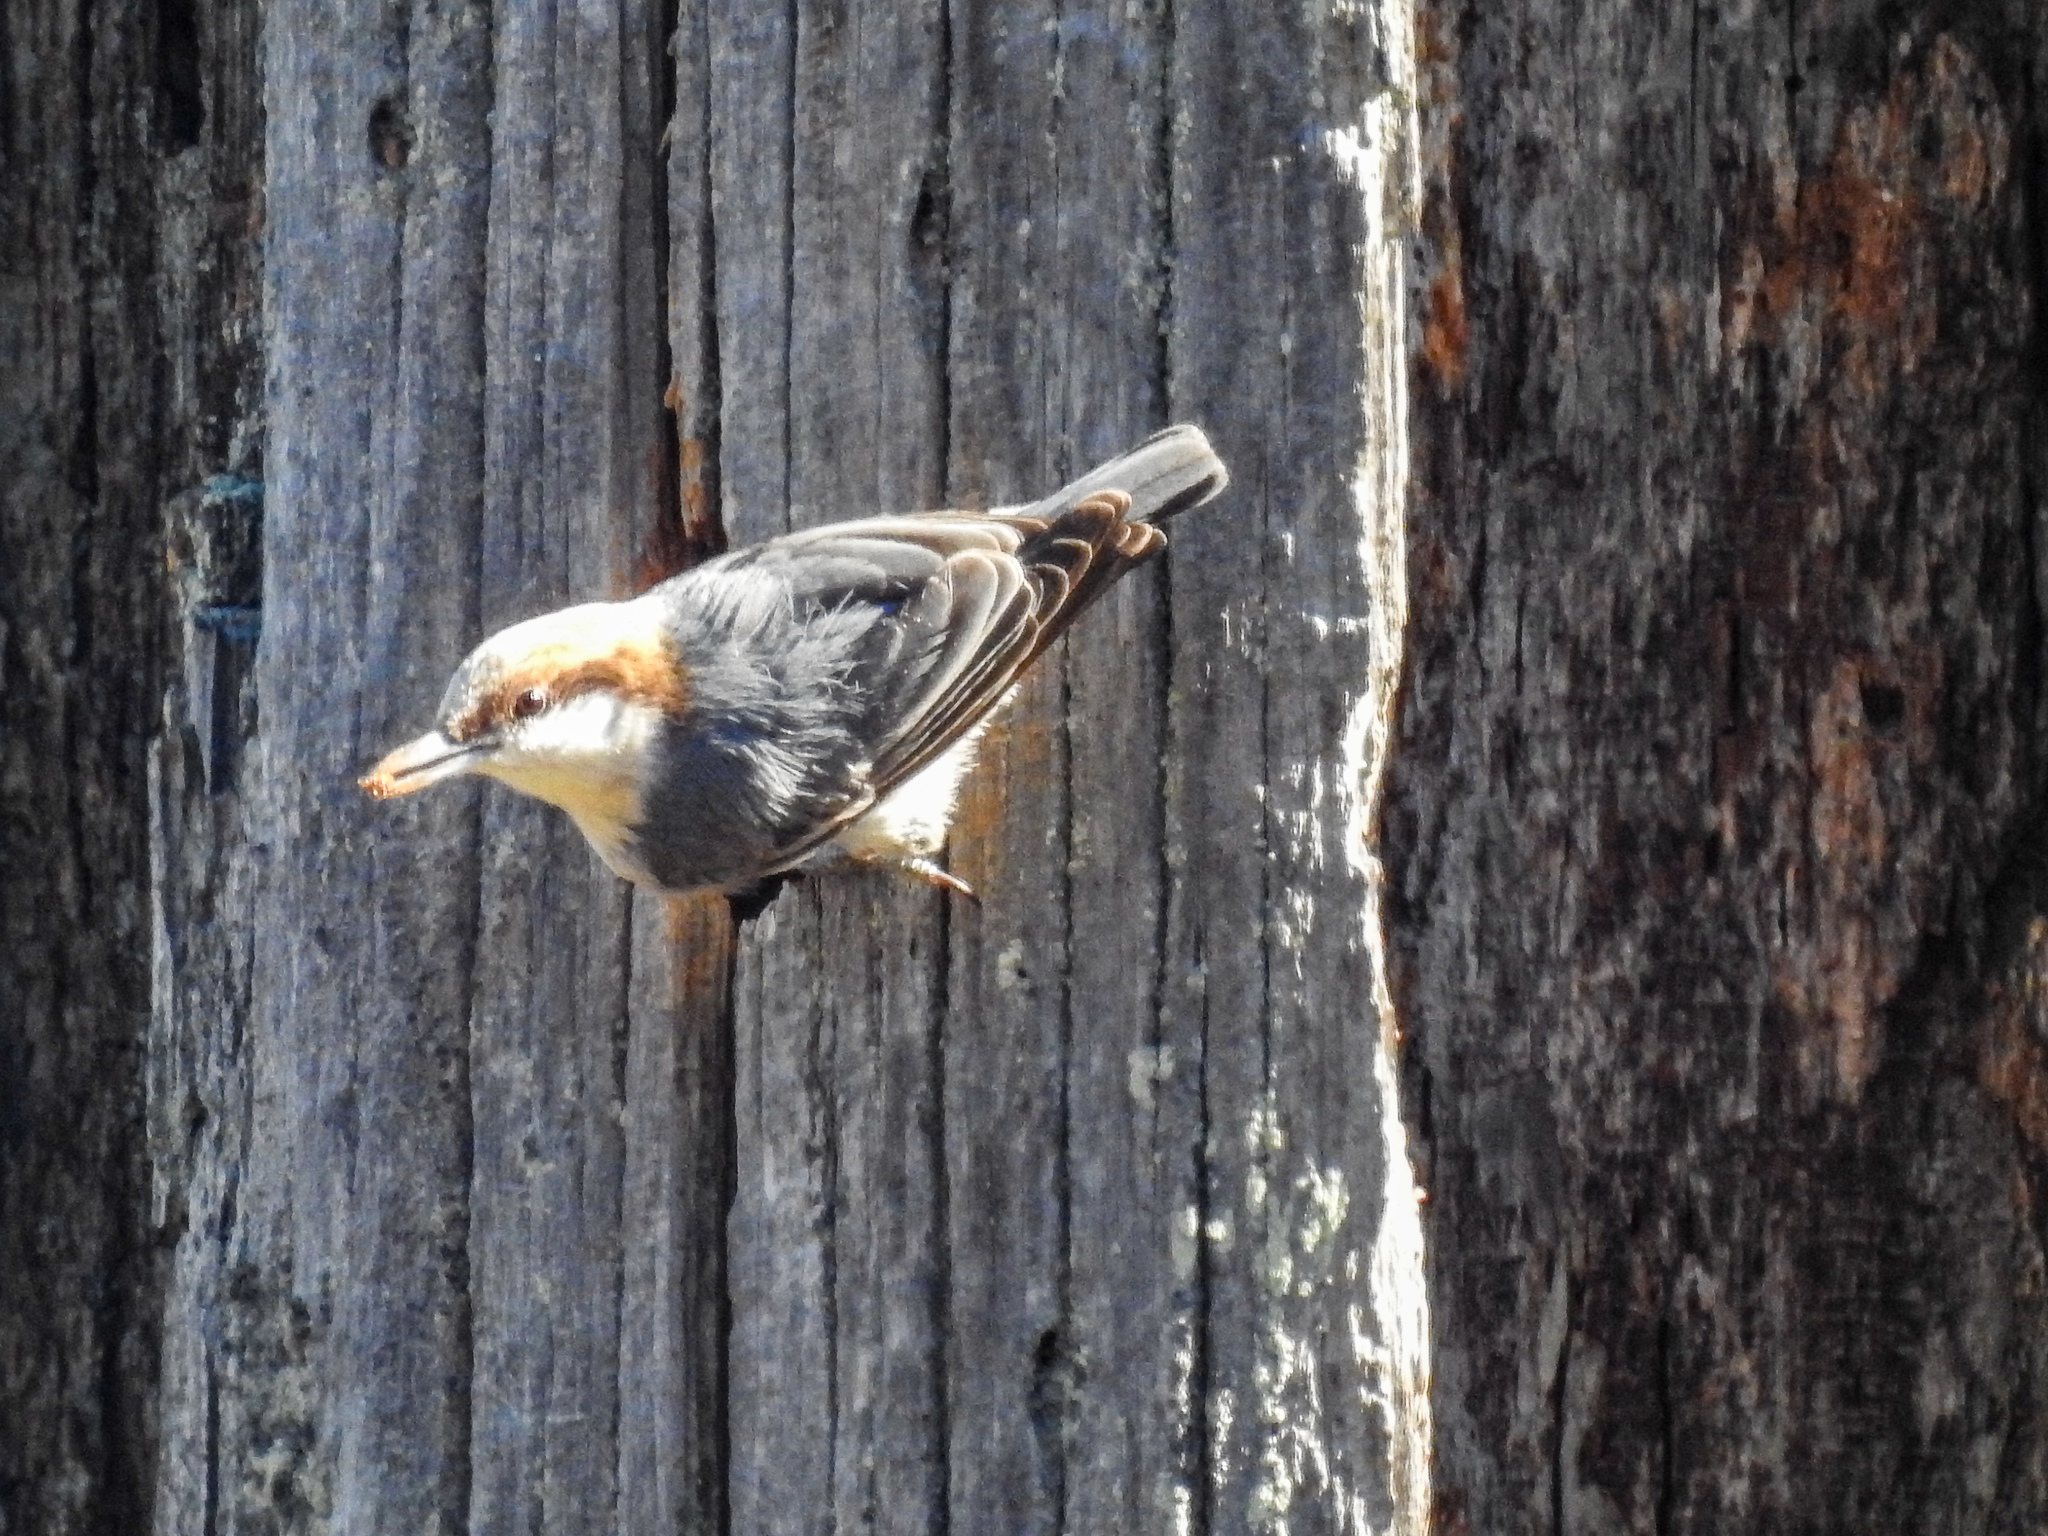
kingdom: Animalia
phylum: Chordata
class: Aves
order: Passeriformes
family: Sittidae
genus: Sitta
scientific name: Sitta pusilla
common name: Brown-headed nuthatch
